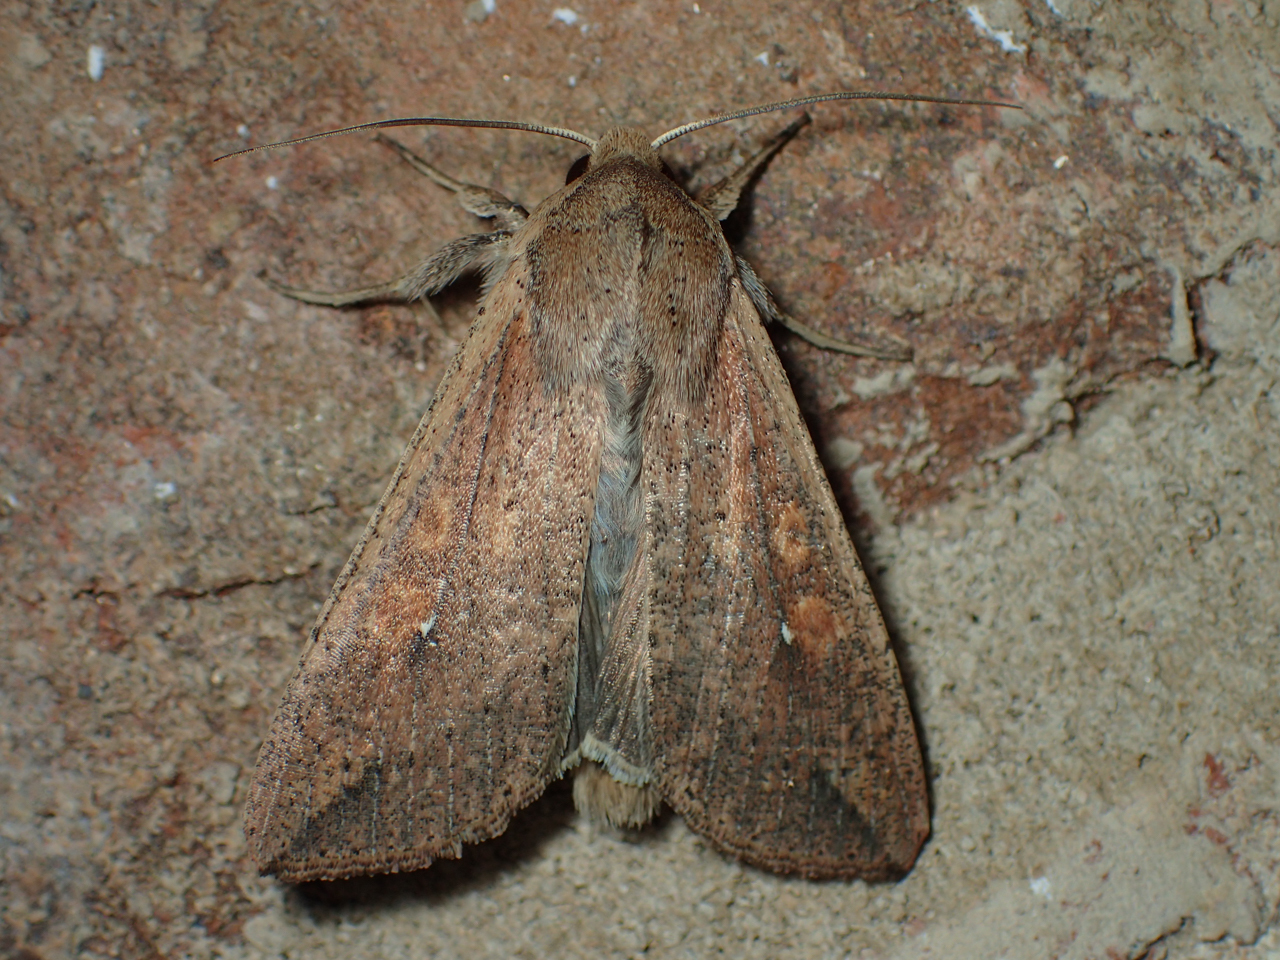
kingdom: Animalia
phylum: Arthropoda
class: Insecta
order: Lepidoptera
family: Noctuidae
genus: Mythimna
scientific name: Mythimna unipuncta
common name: White-speck
